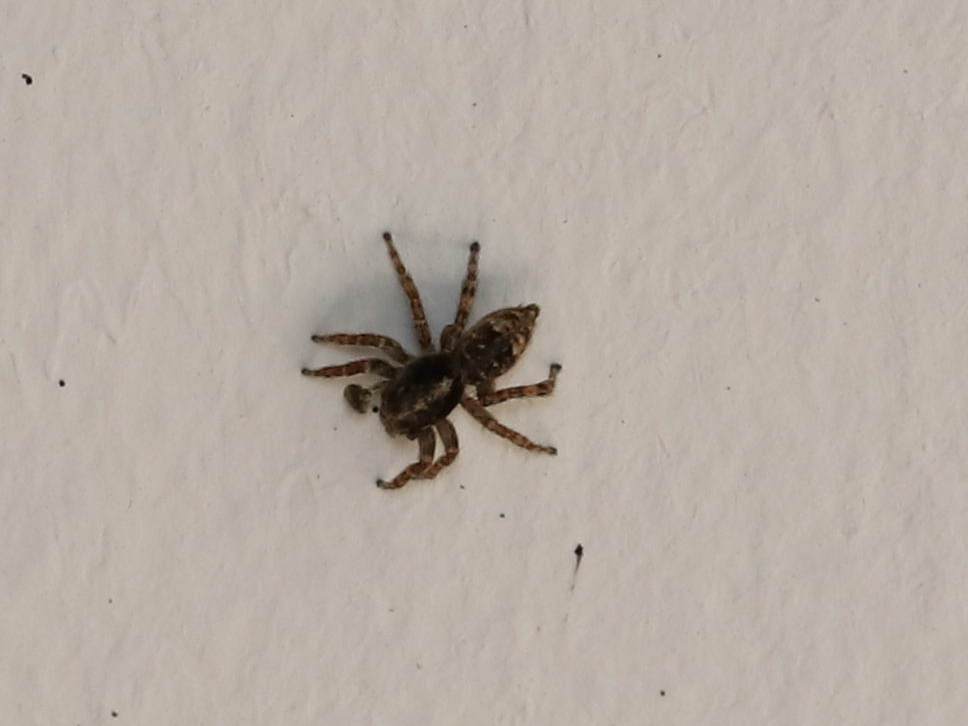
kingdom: Animalia
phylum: Arthropoda
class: Arachnida
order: Araneae
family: Salticidae
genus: Attulus
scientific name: Attulus fasciger
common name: Asiatic wall jumping spider
